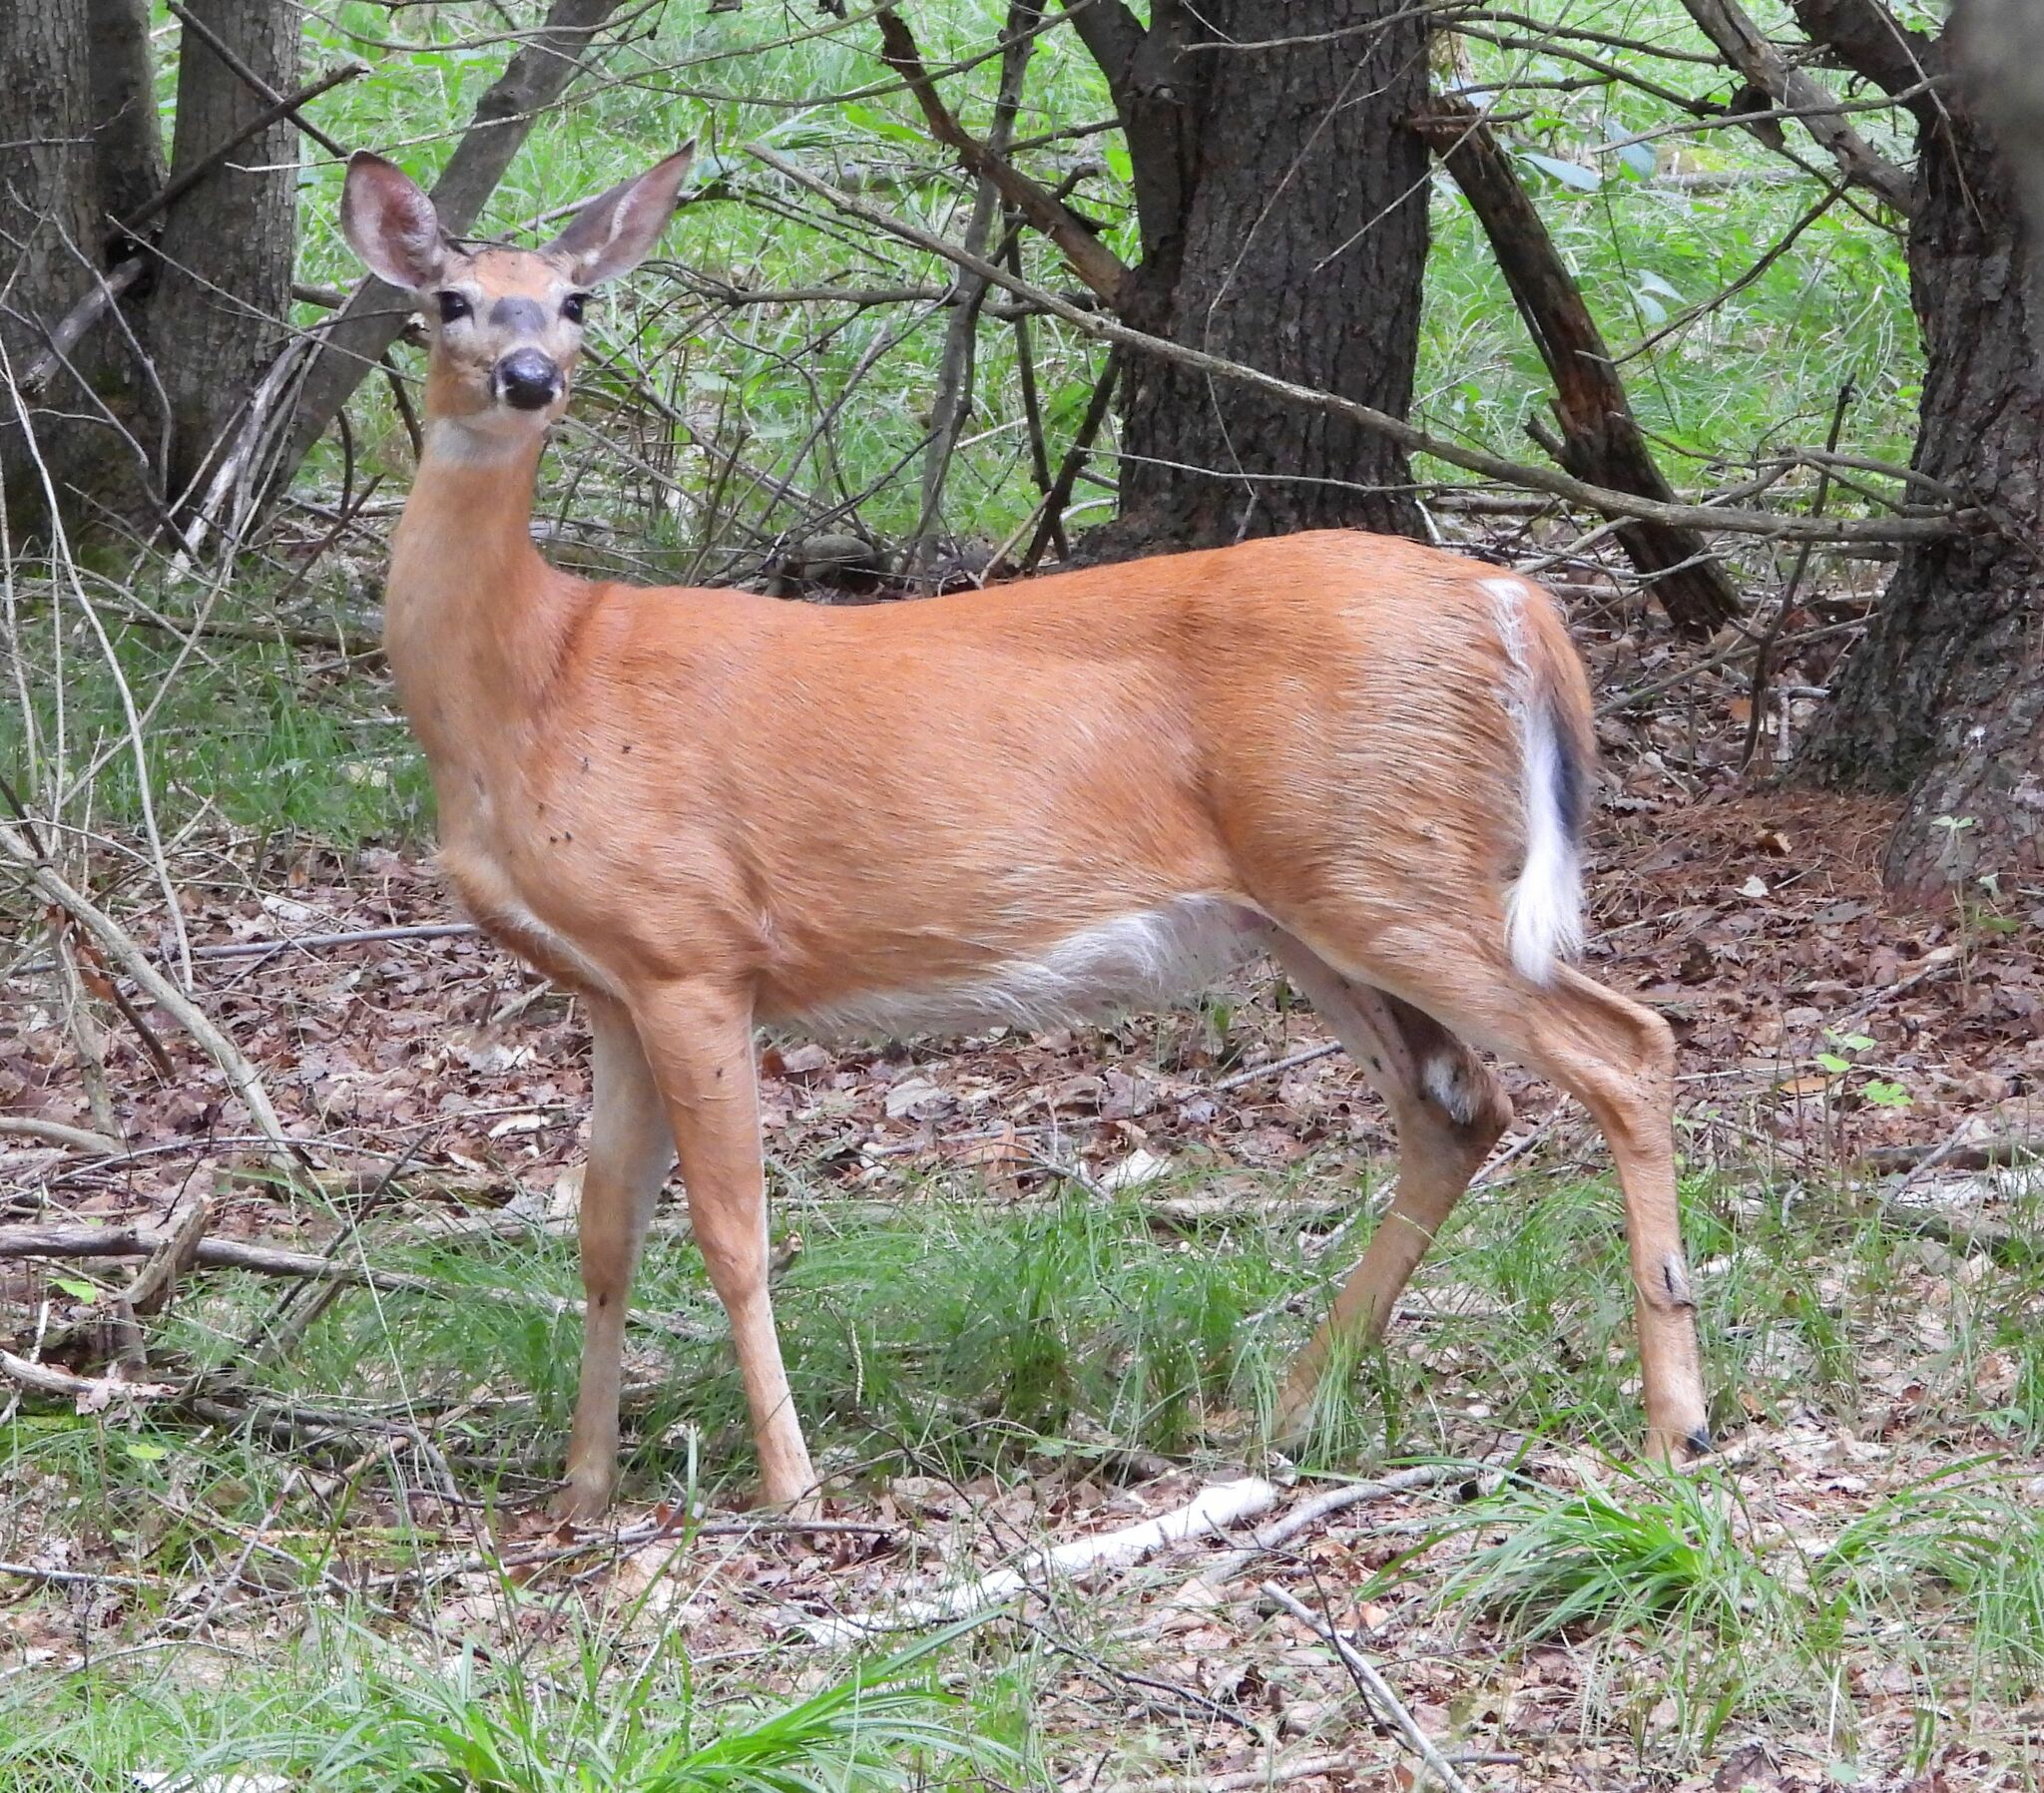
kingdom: Animalia
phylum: Chordata
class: Mammalia
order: Artiodactyla
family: Cervidae
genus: Odocoileus
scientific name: Odocoileus virginianus
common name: White-tailed deer
